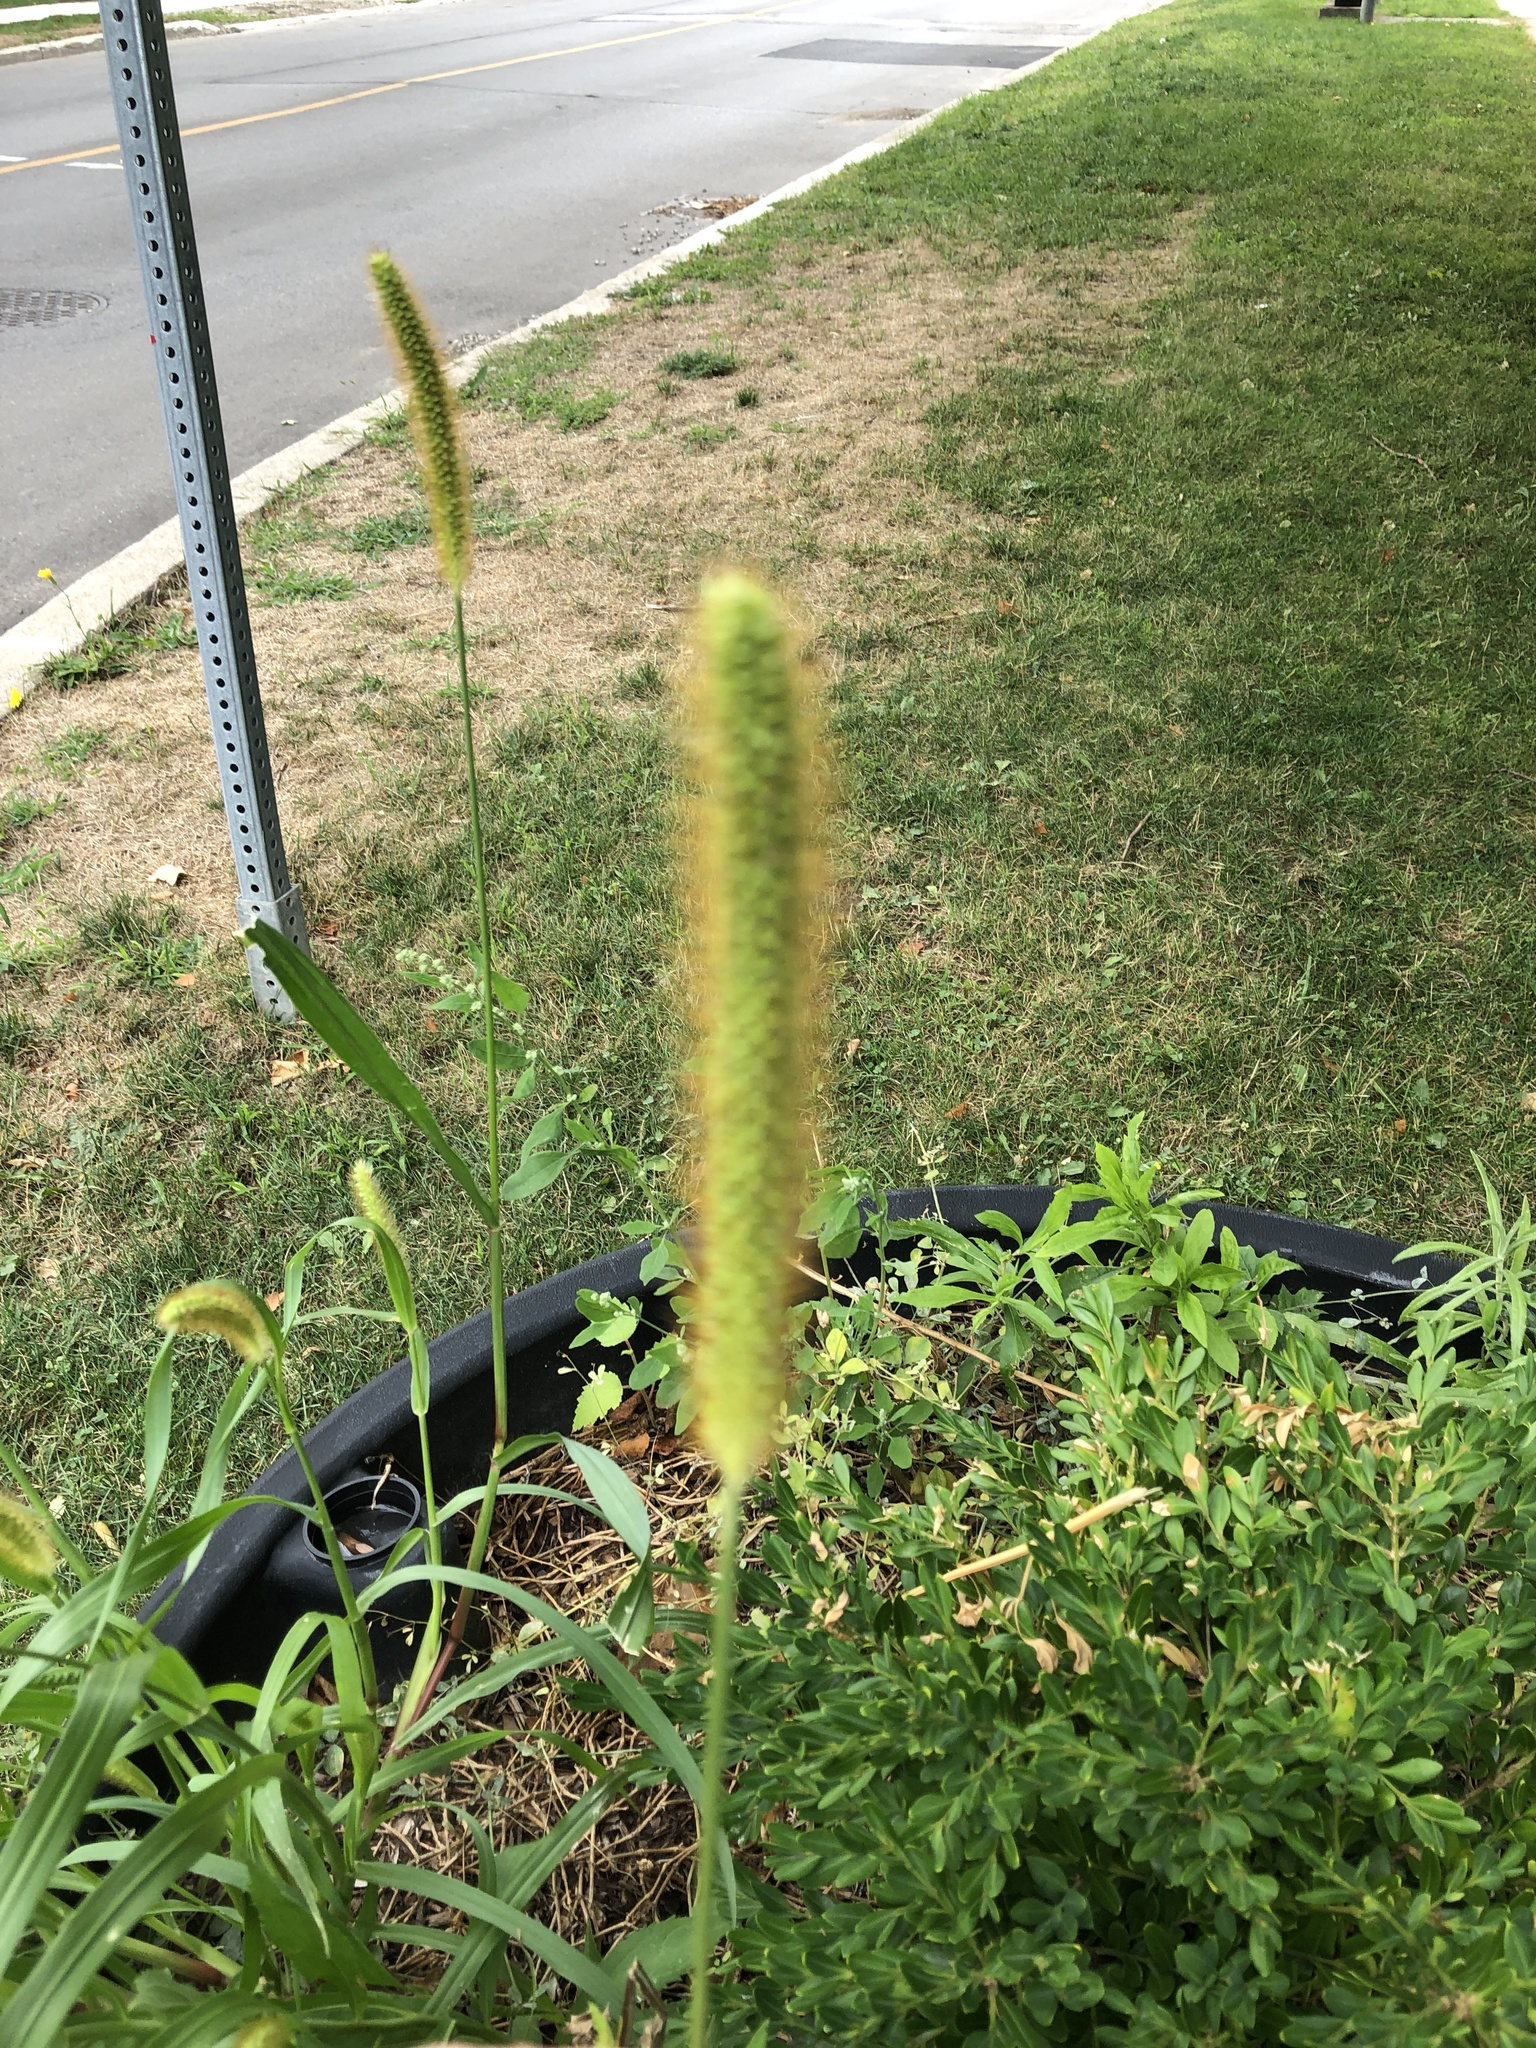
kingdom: Plantae
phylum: Tracheophyta
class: Liliopsida
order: Poales
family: Poaceae
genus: Setaria
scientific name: Setaria pumila
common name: Yellow bristle-grass
